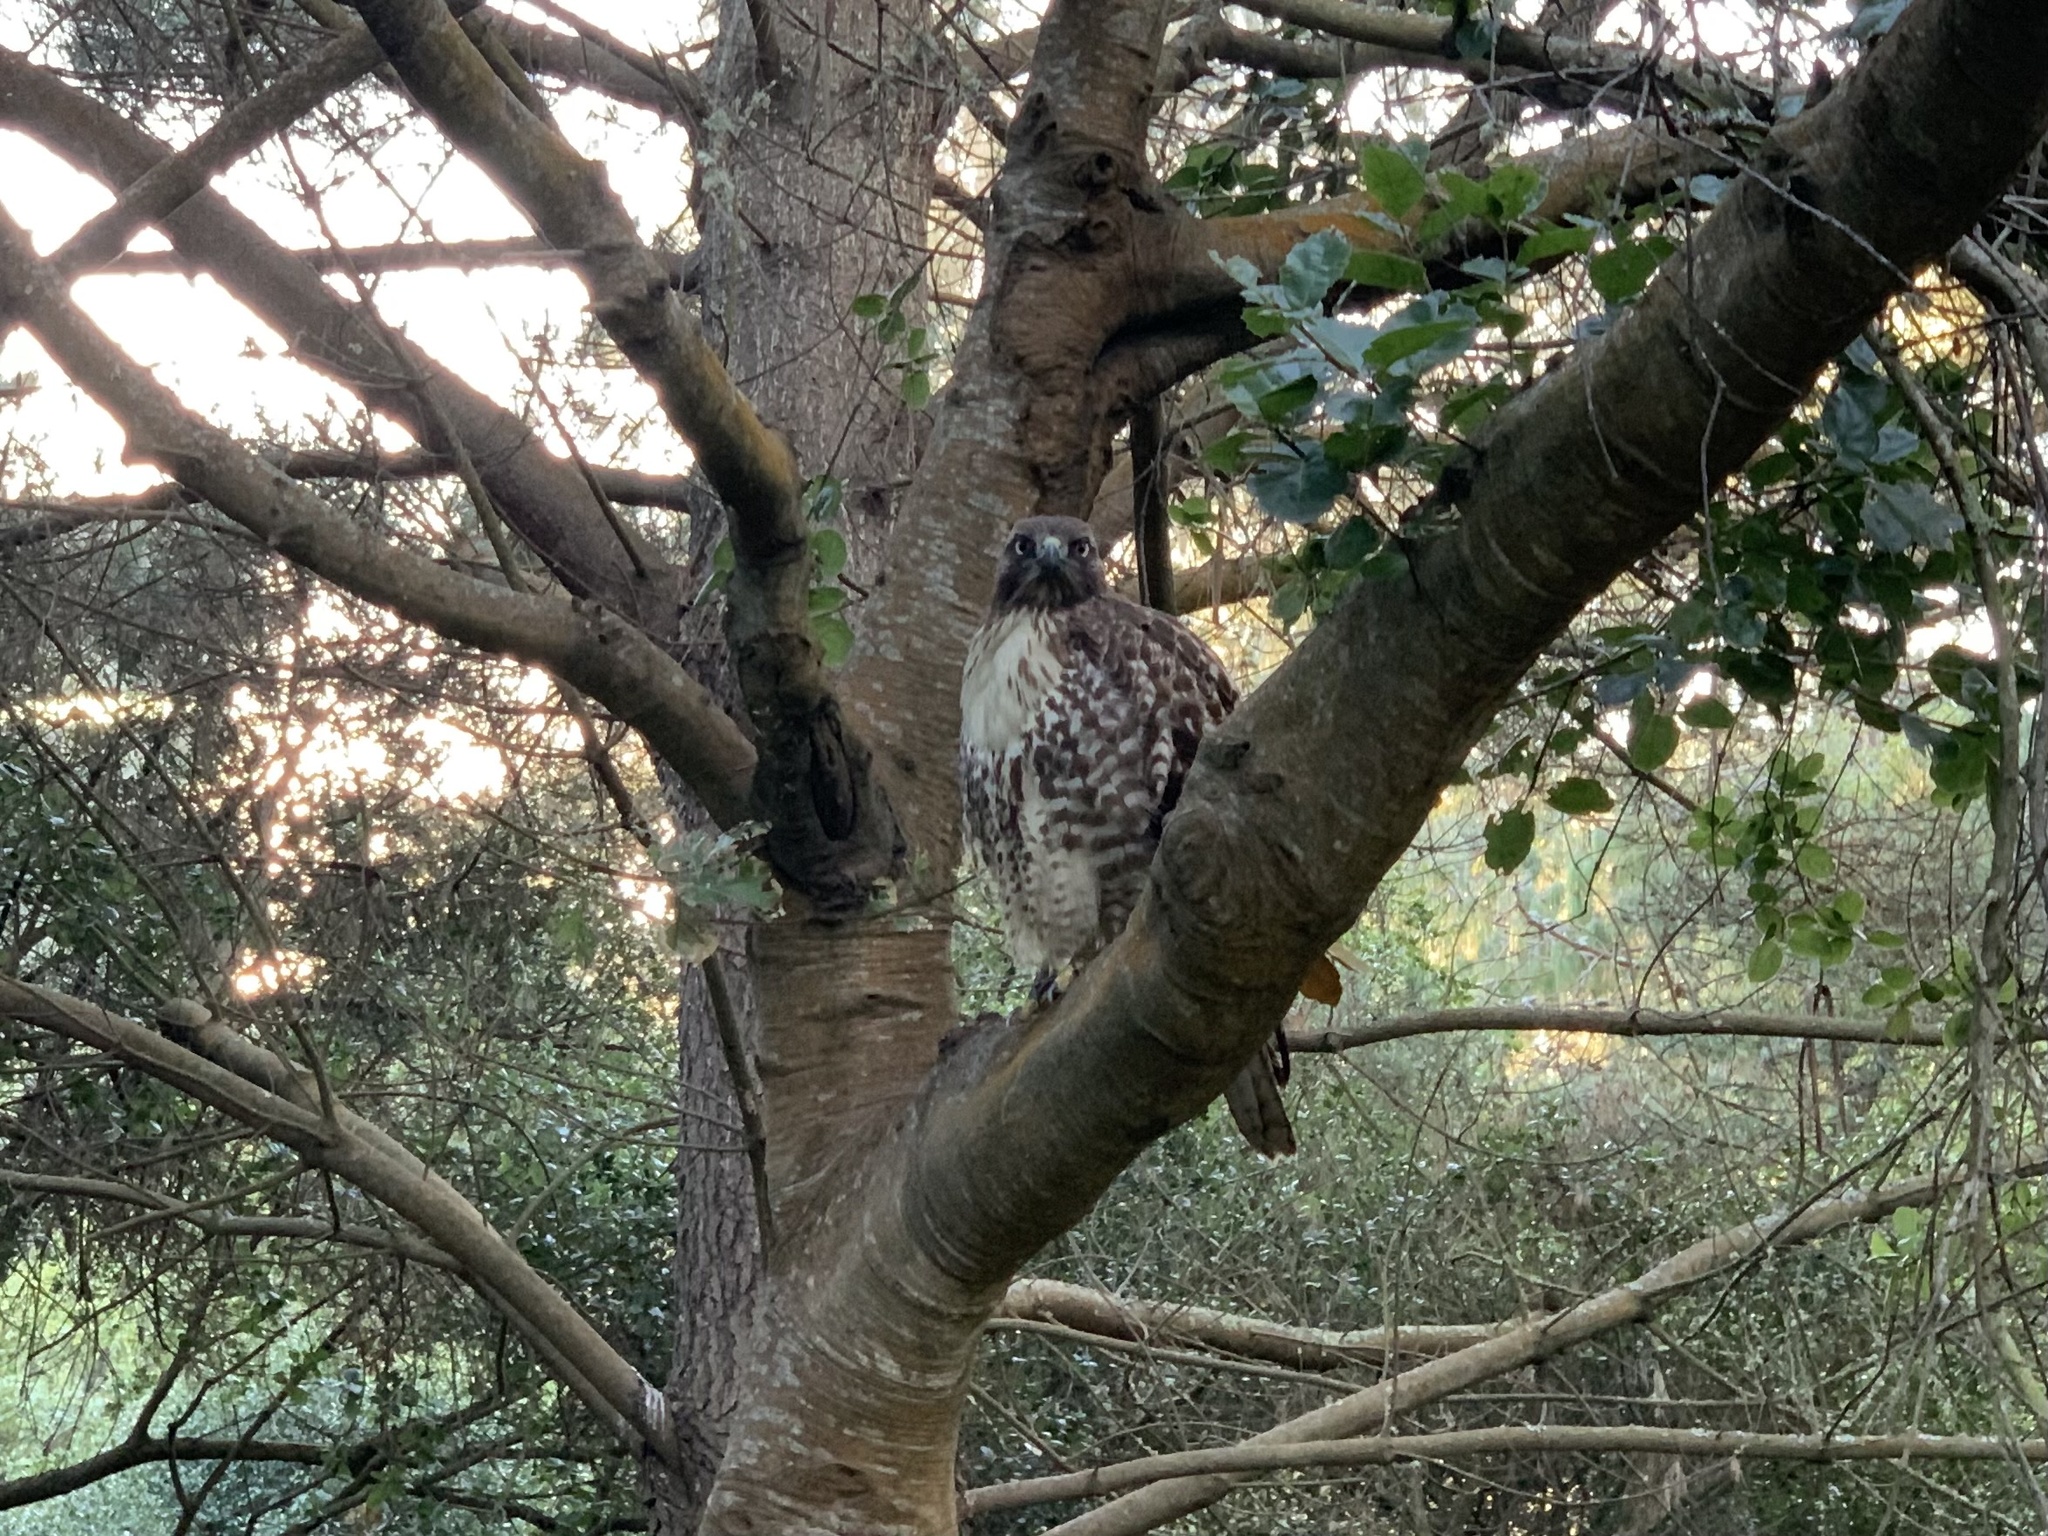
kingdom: Animalia
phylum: Chordata
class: Aves
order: Accipitriformes
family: Accipitridae
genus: Buteo
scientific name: Buteo jamaicensis
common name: Red-tailed hawk
